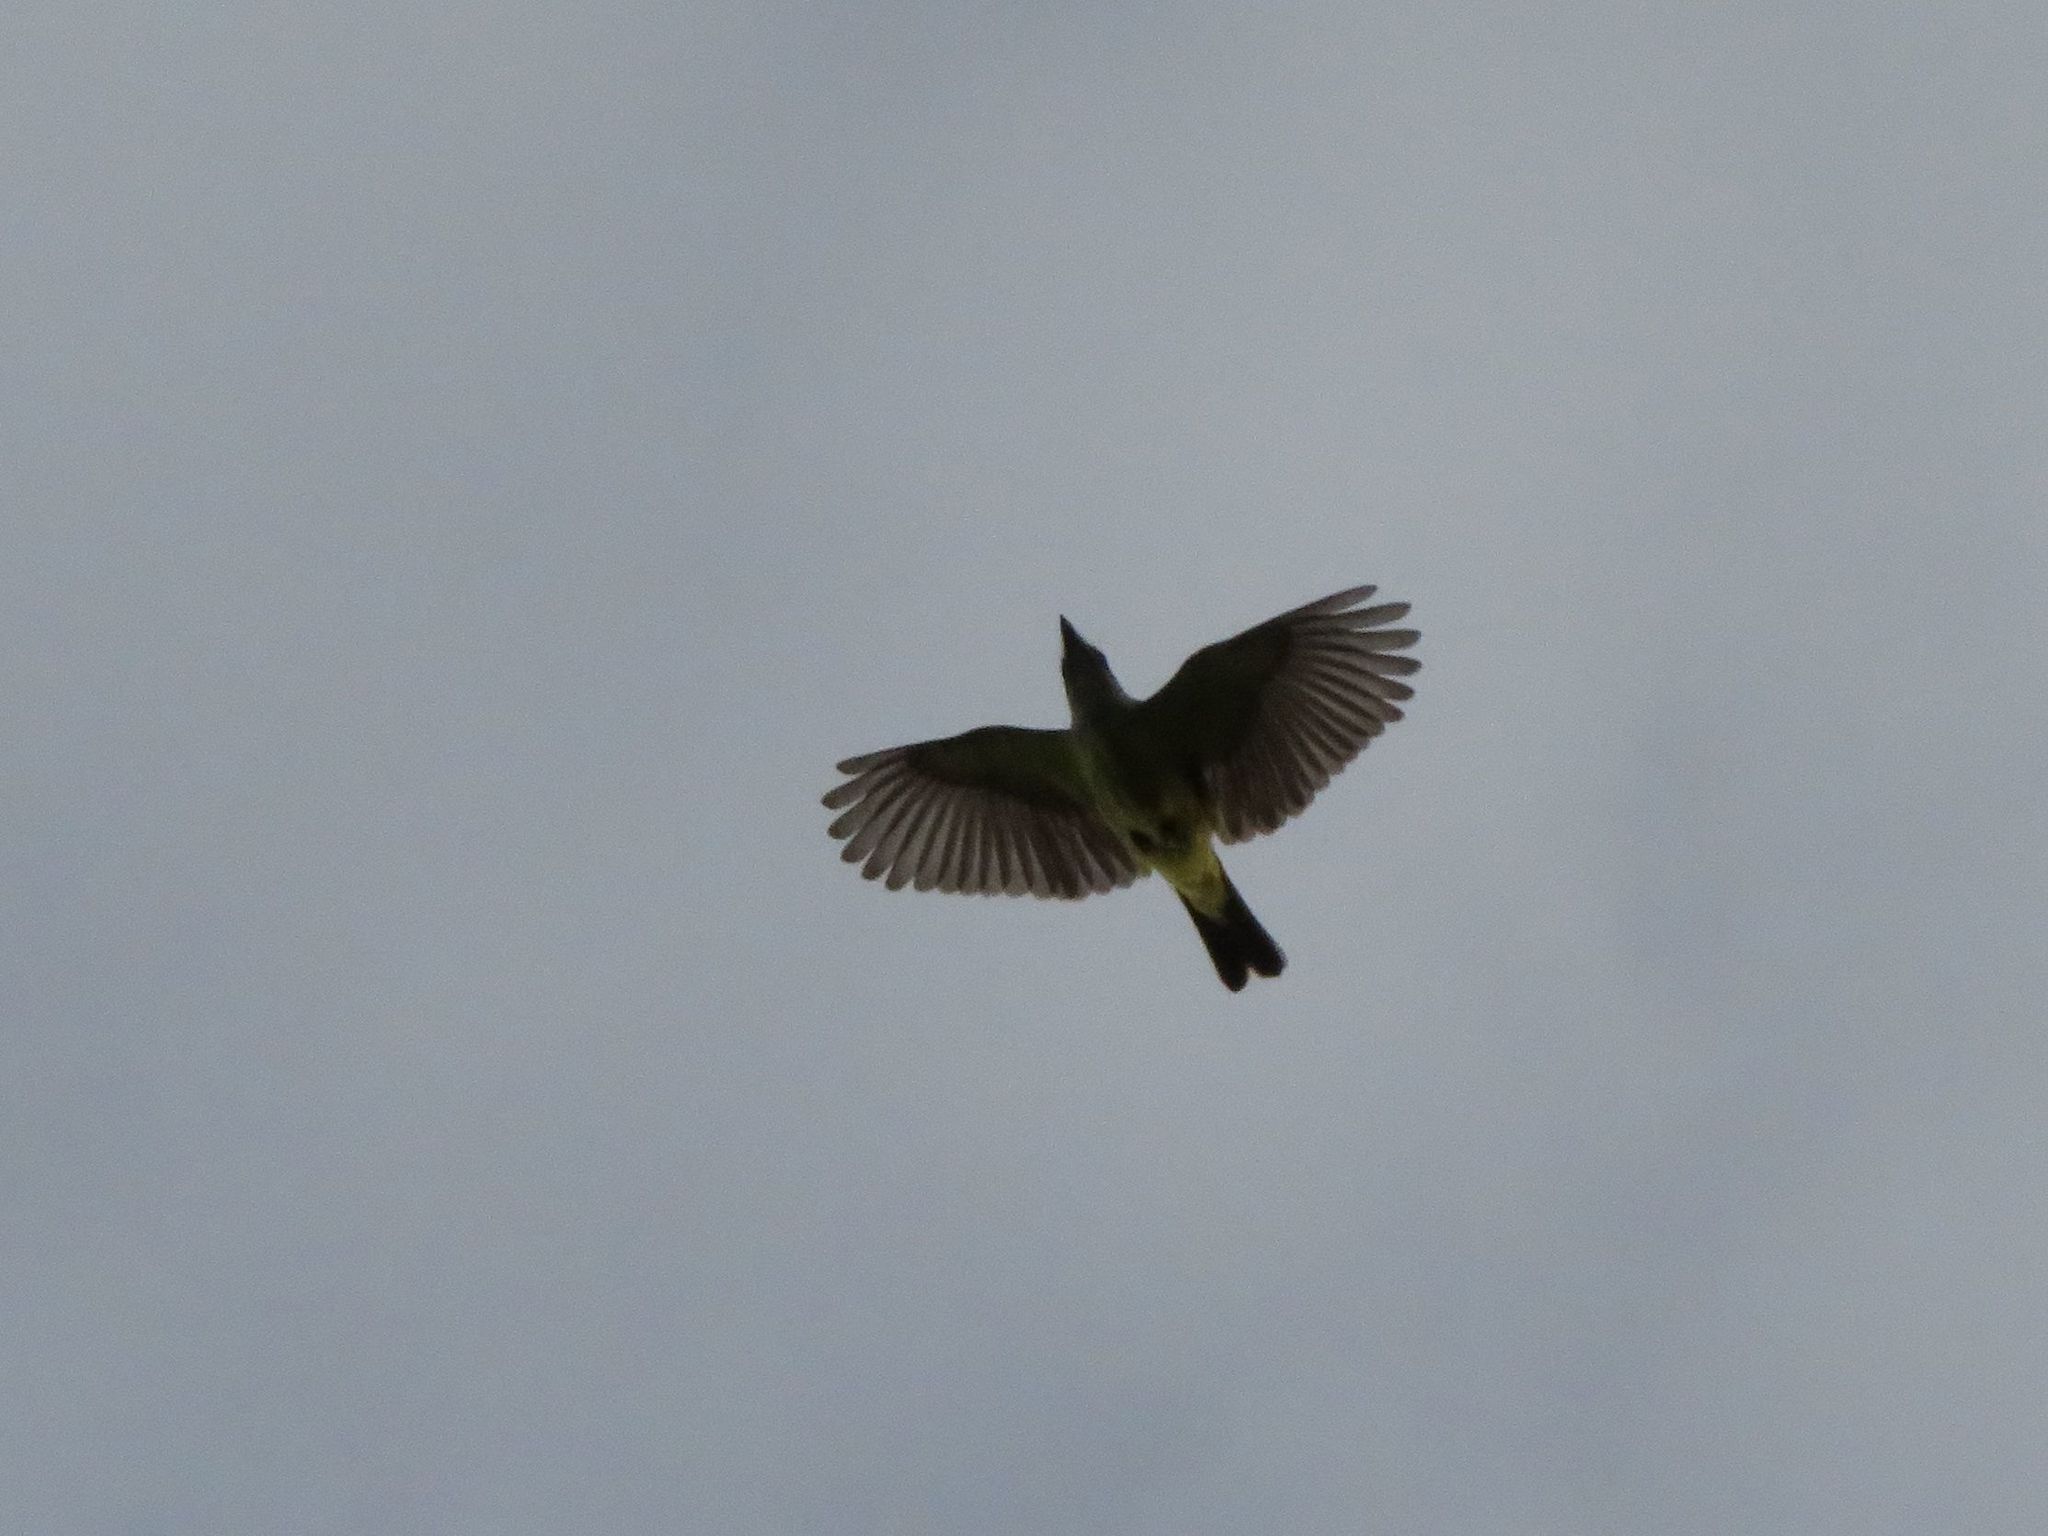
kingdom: Animalia
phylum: Chordata
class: Aves
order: Passeriformes
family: Tyrannidae
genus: Tyrannus
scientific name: Tyrannus melancholicus
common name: Tropical kingbird
